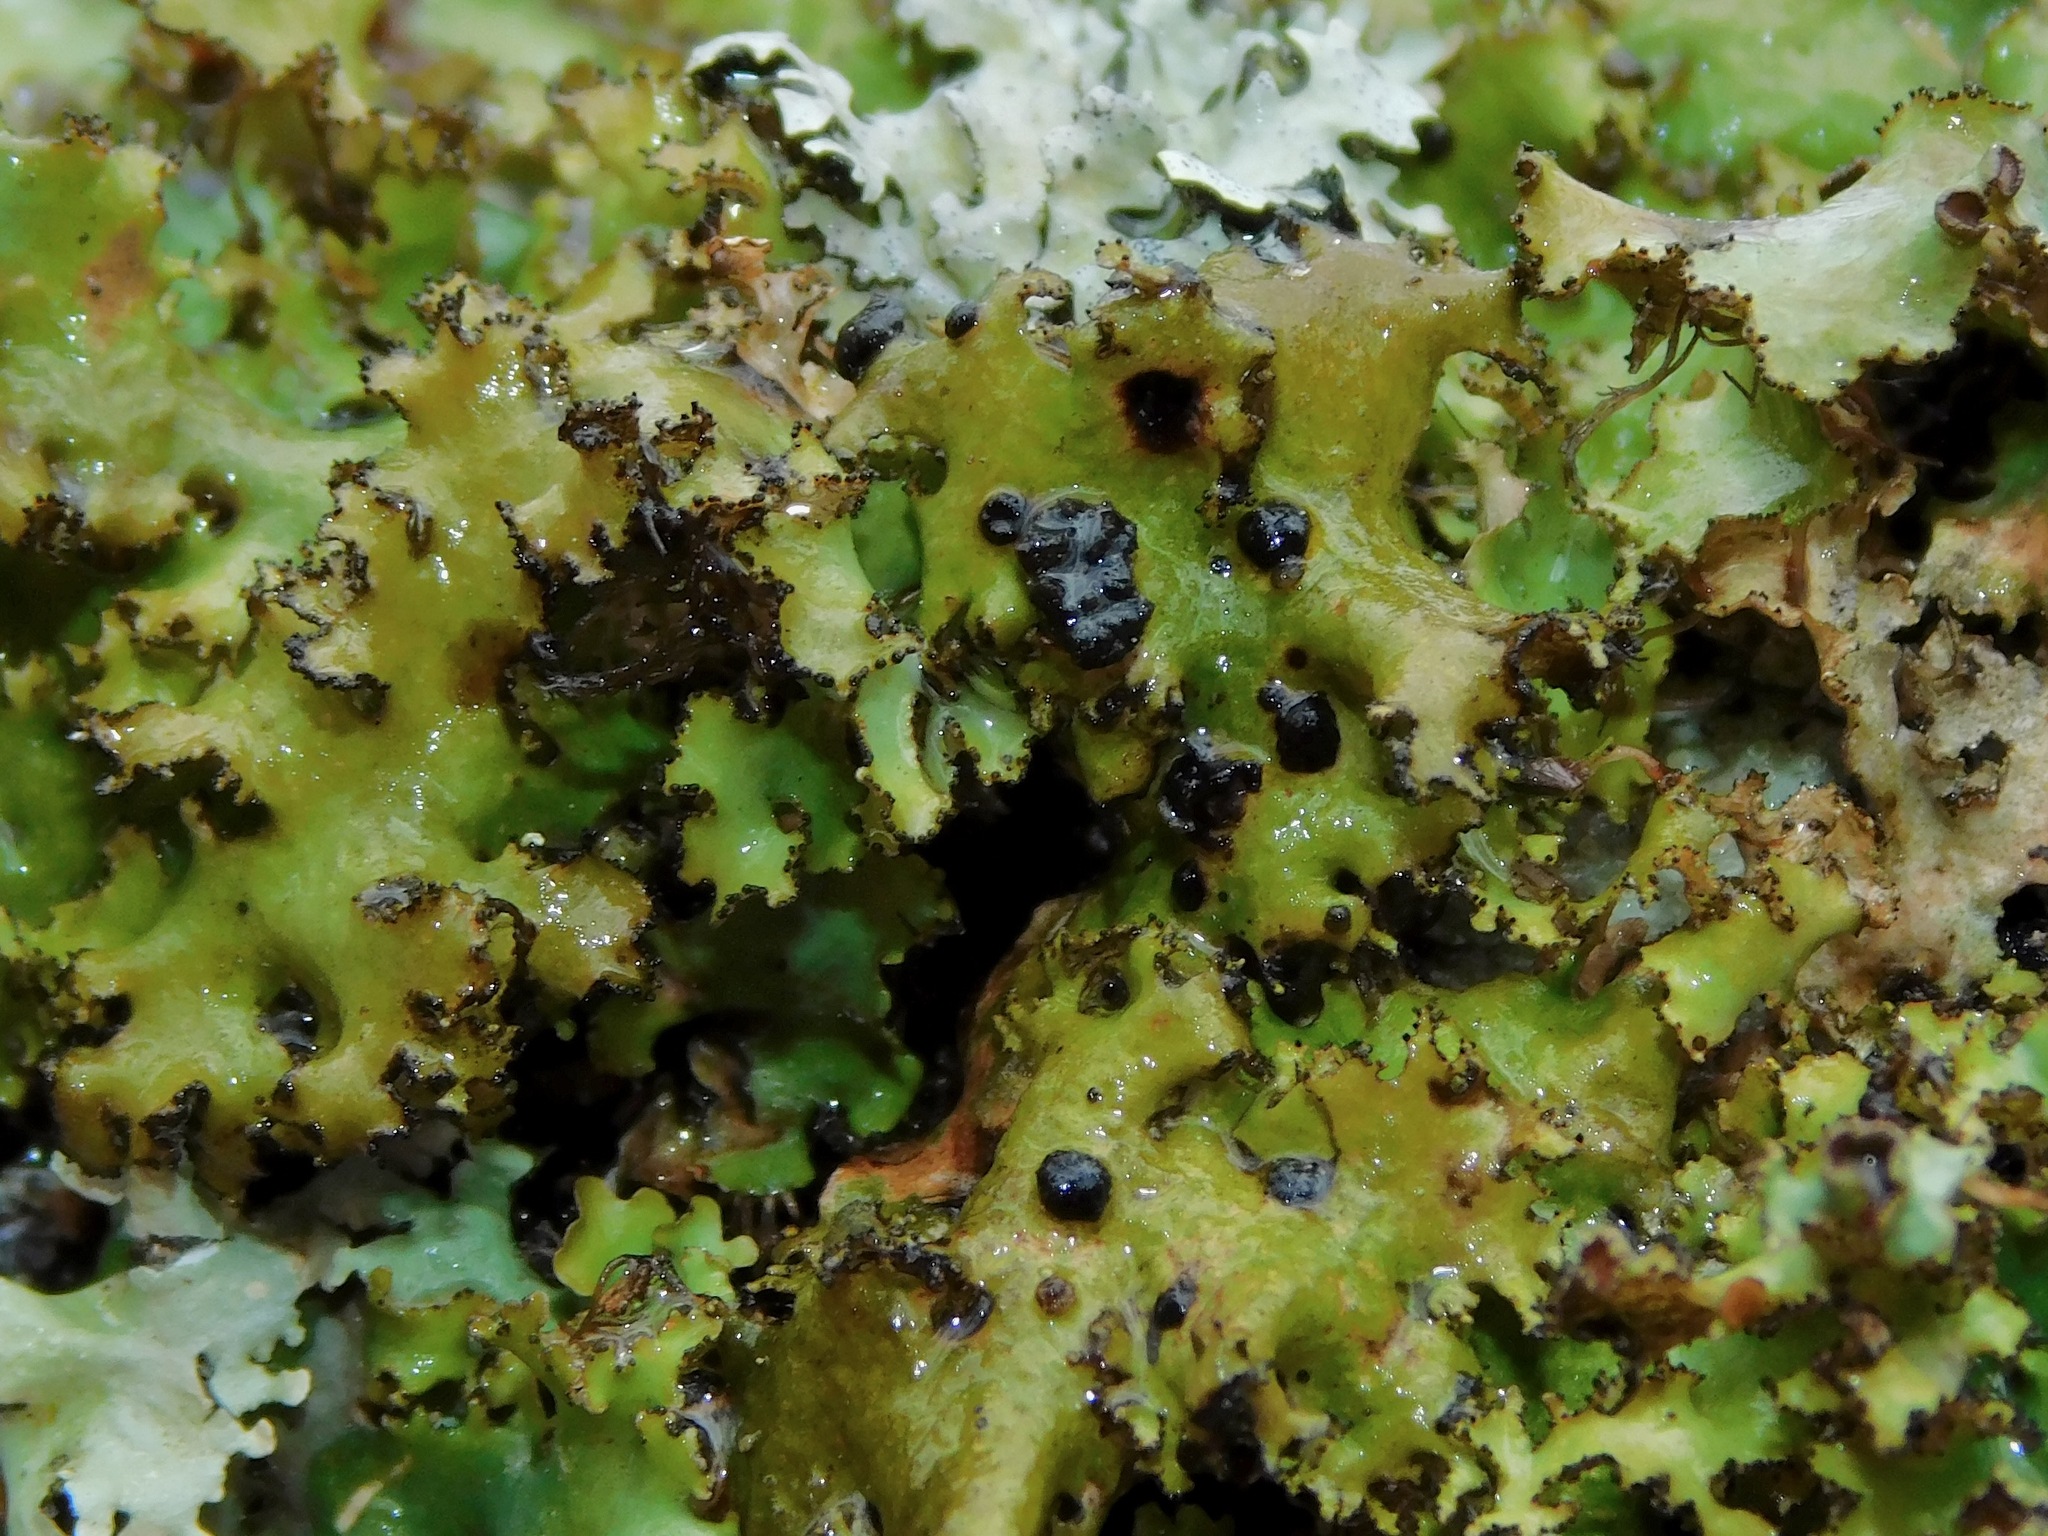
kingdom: Fungi
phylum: Ascomycota
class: Lecanoromycetes
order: Lecanorales
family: Parmeliaceae
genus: Nephromopsis
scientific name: Nephromopsis americana
